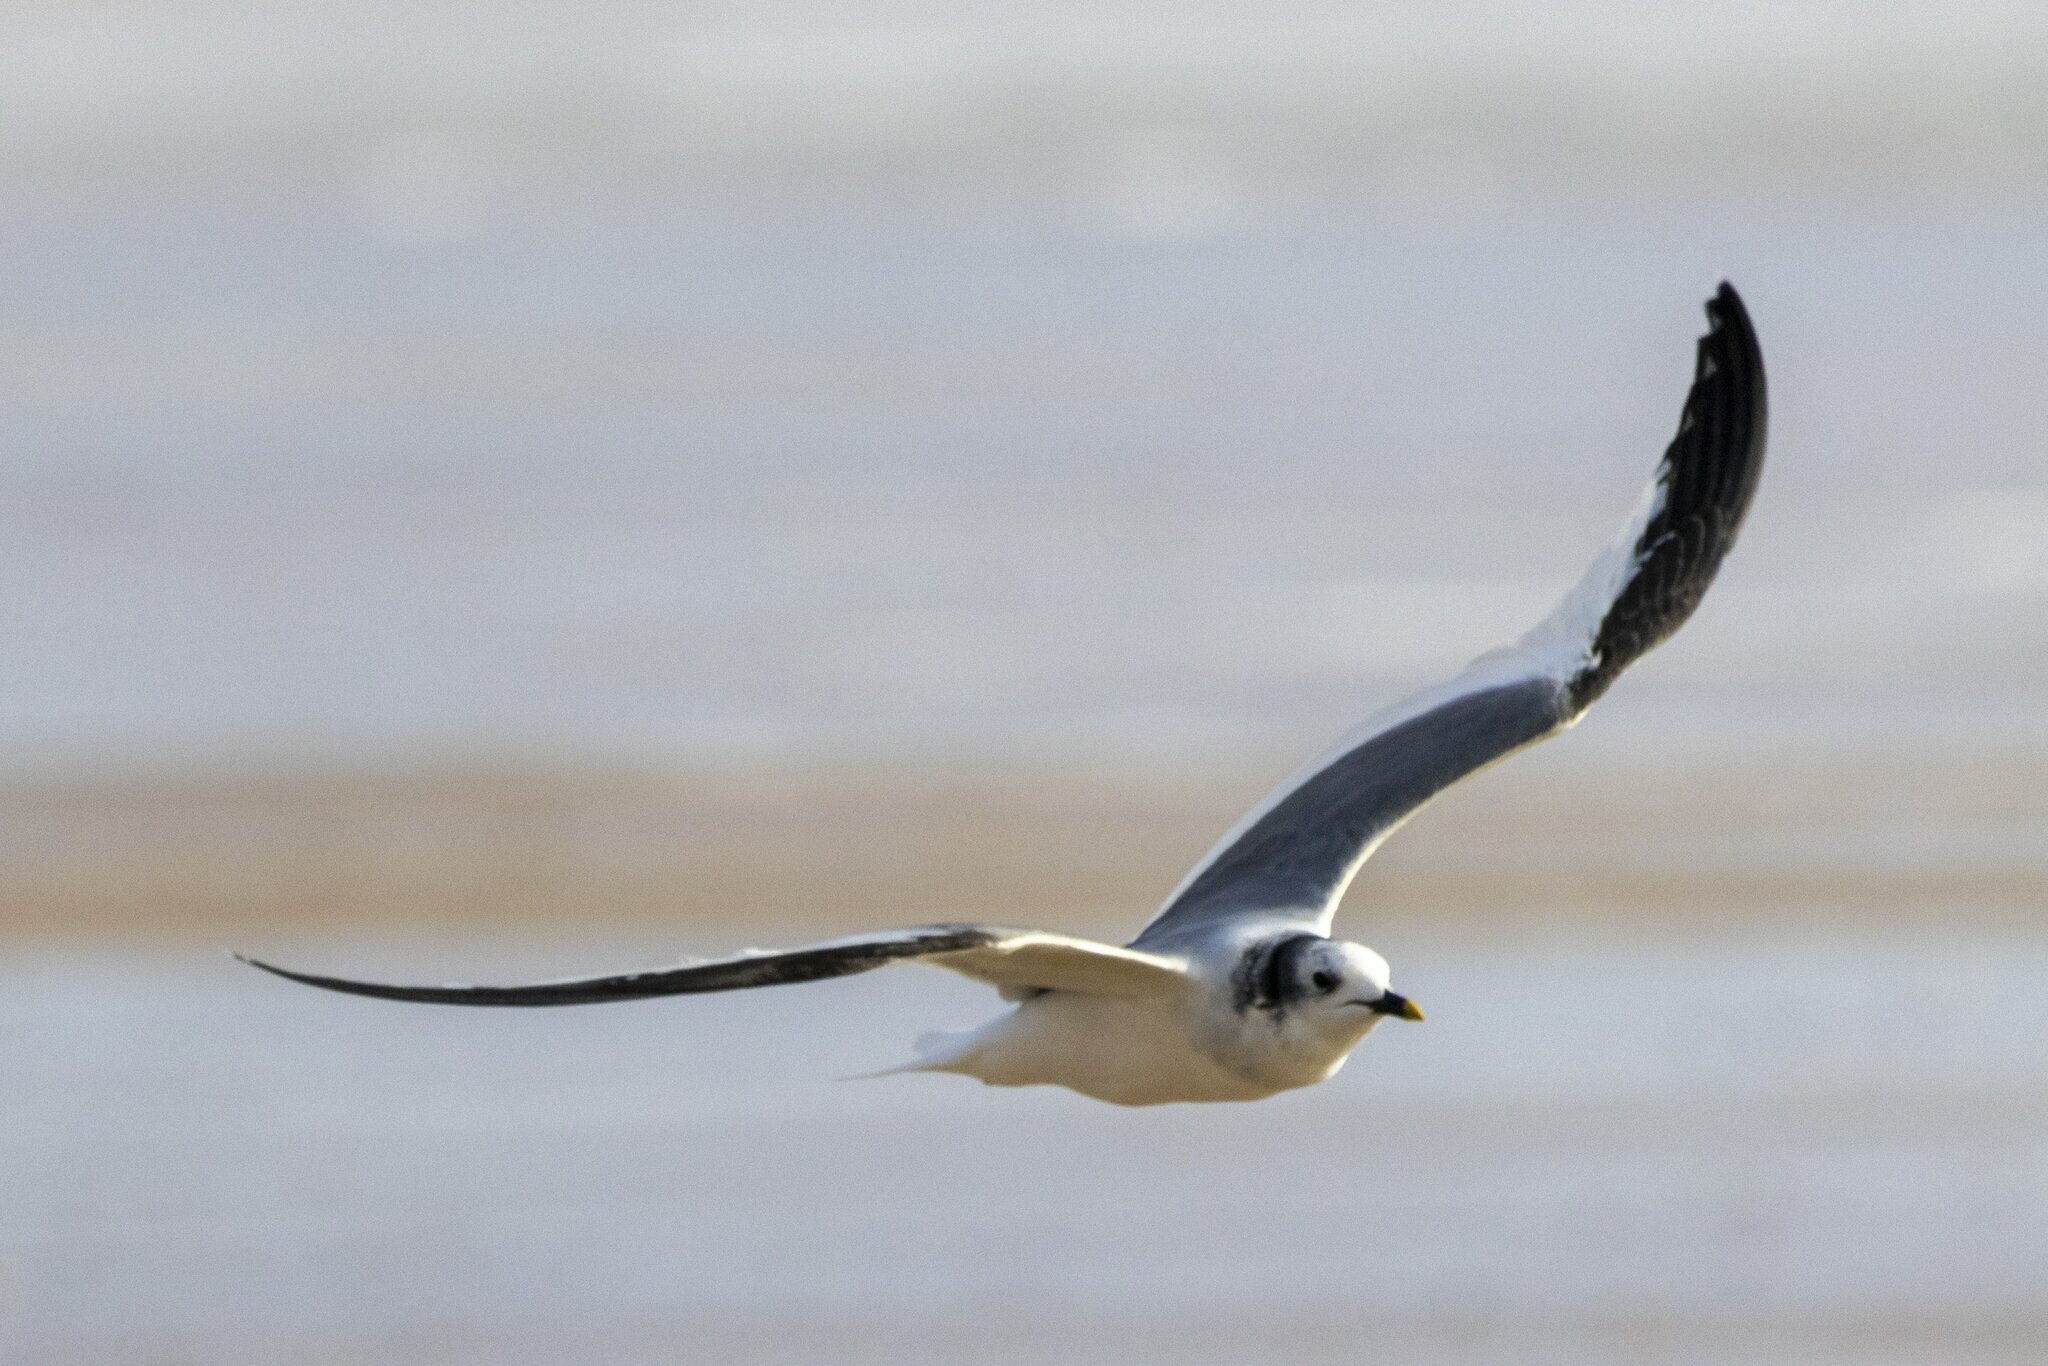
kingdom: Animalia
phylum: Chordata
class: Aves
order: Charadriiformes
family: Laridae
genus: Xema
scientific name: Xema sabini
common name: Sabine's gull
